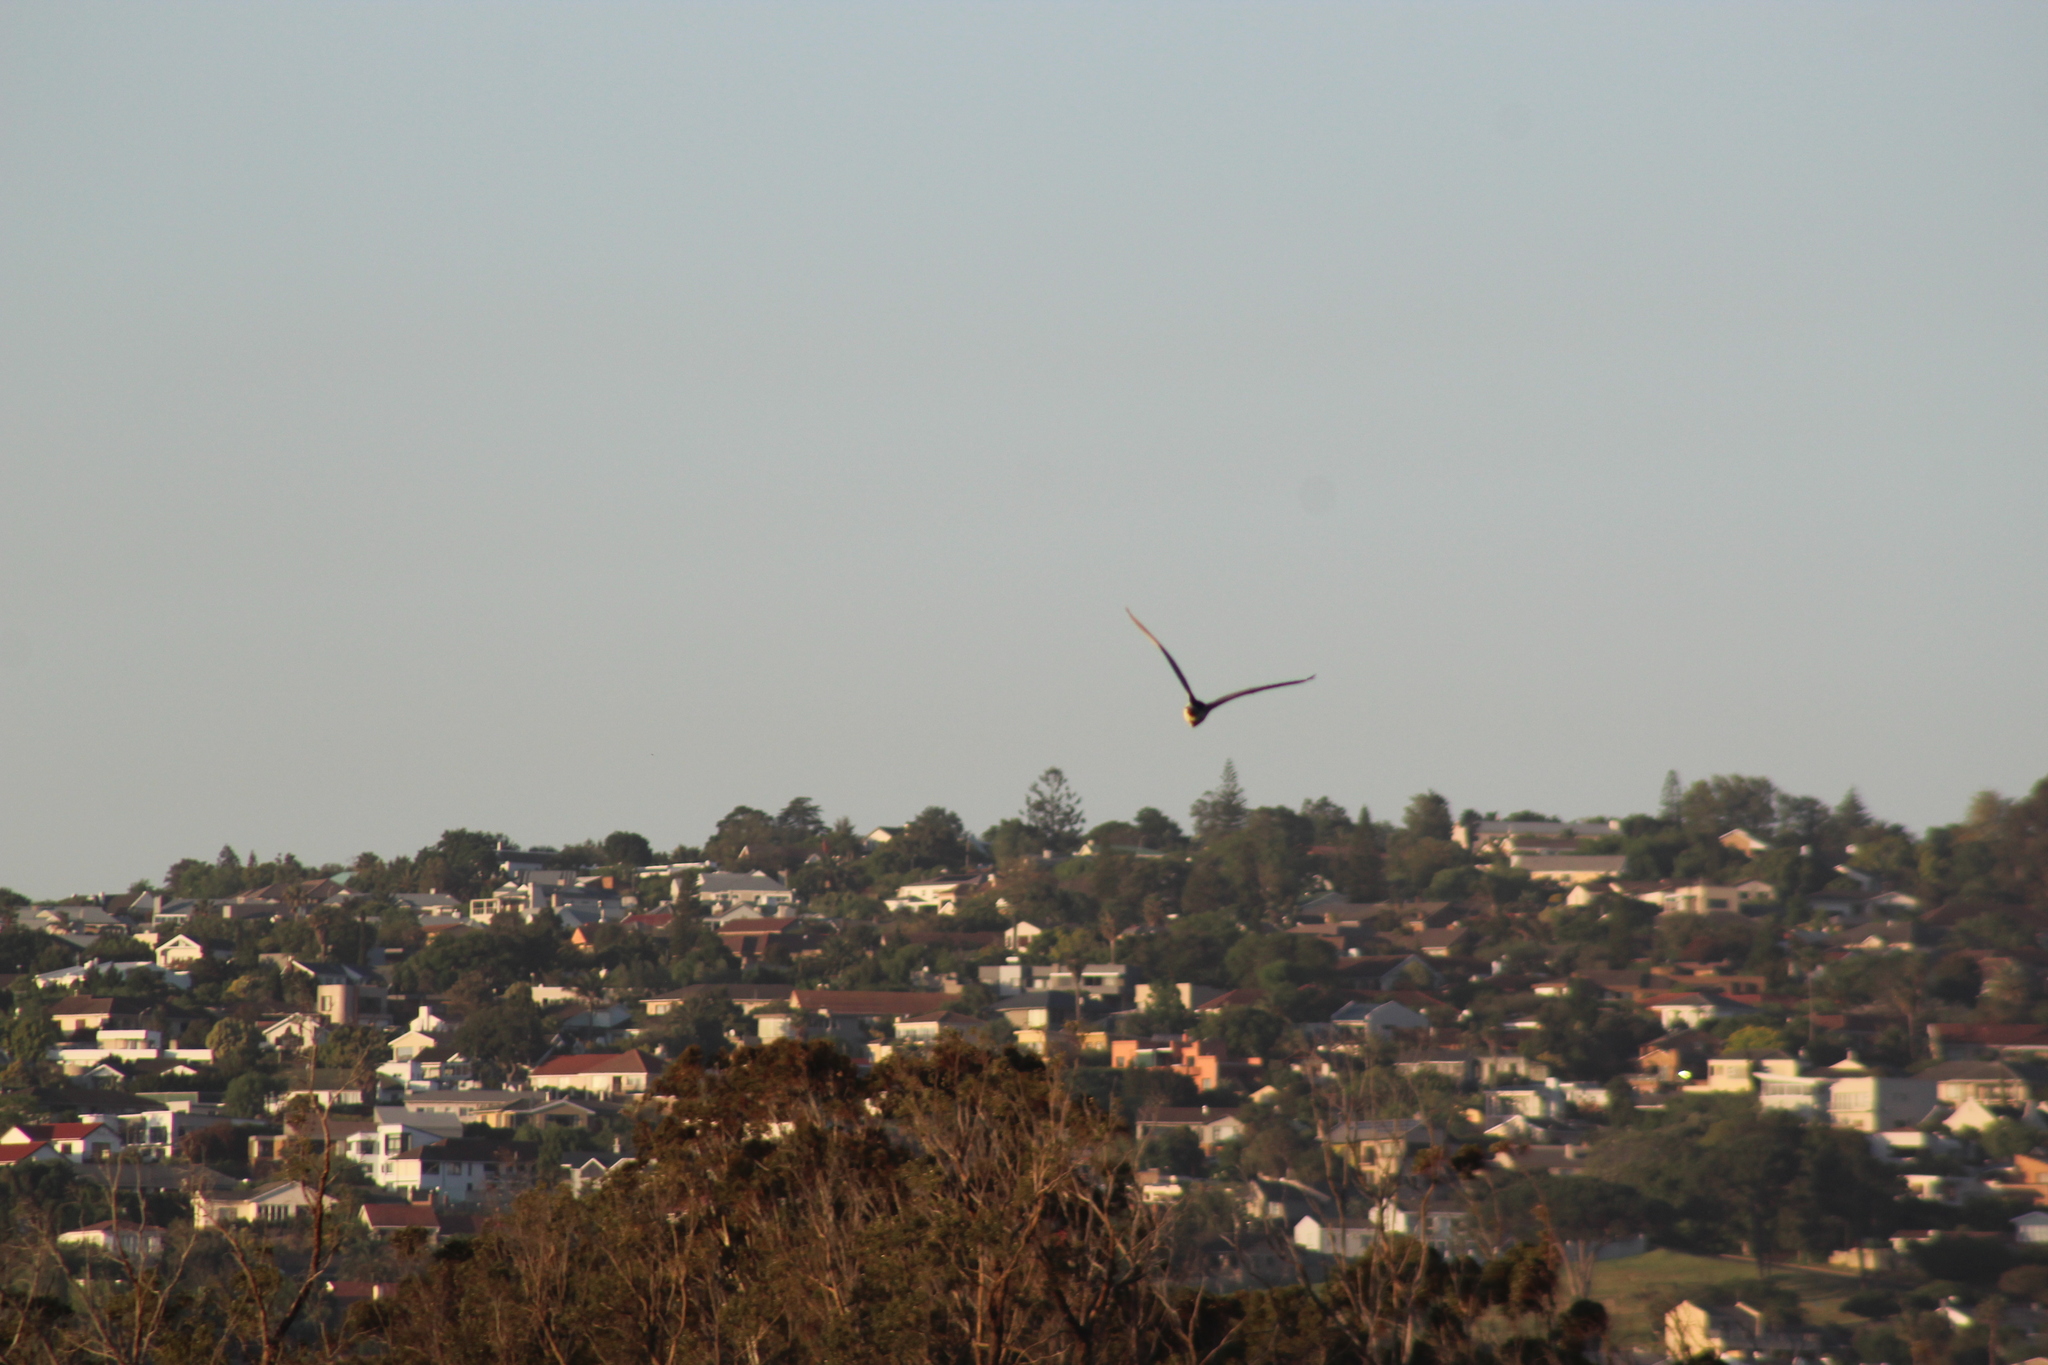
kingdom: Animalia
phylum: Chordata
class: Aves
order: Pelecaniformes
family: Ardeidae
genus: Nycticorax
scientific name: Nycticorax nycticorax
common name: Black-crowned night heron
